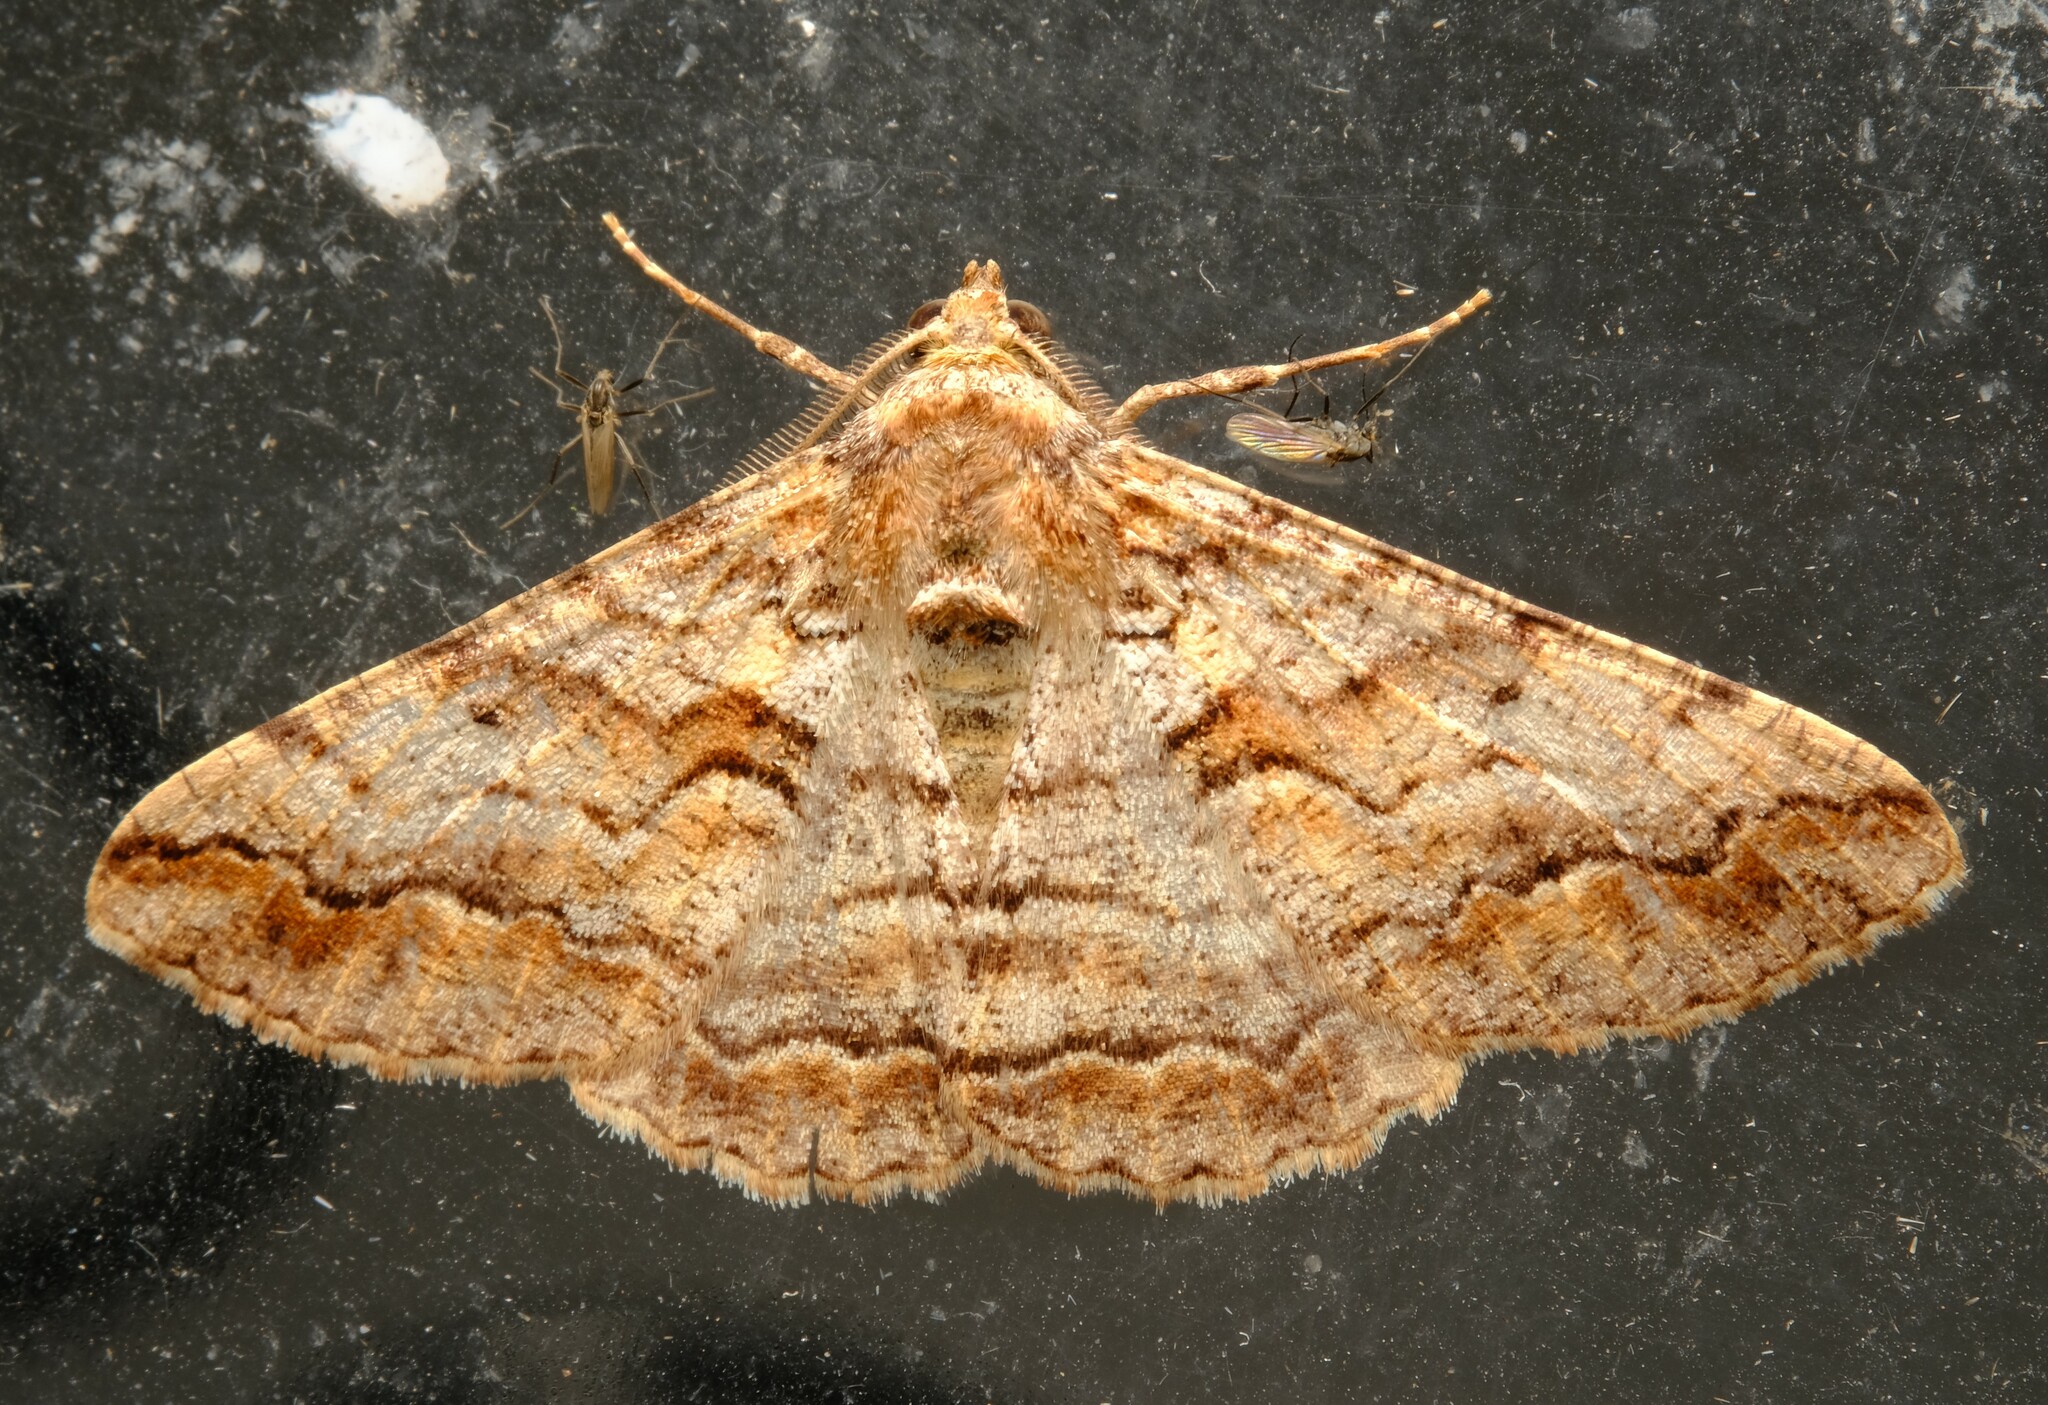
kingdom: Animalia
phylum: Arthropoda
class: Insecta
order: Lepidoptera
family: Geometridae
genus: Gastrinodes
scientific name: Gastrinodes bitaeniaria
